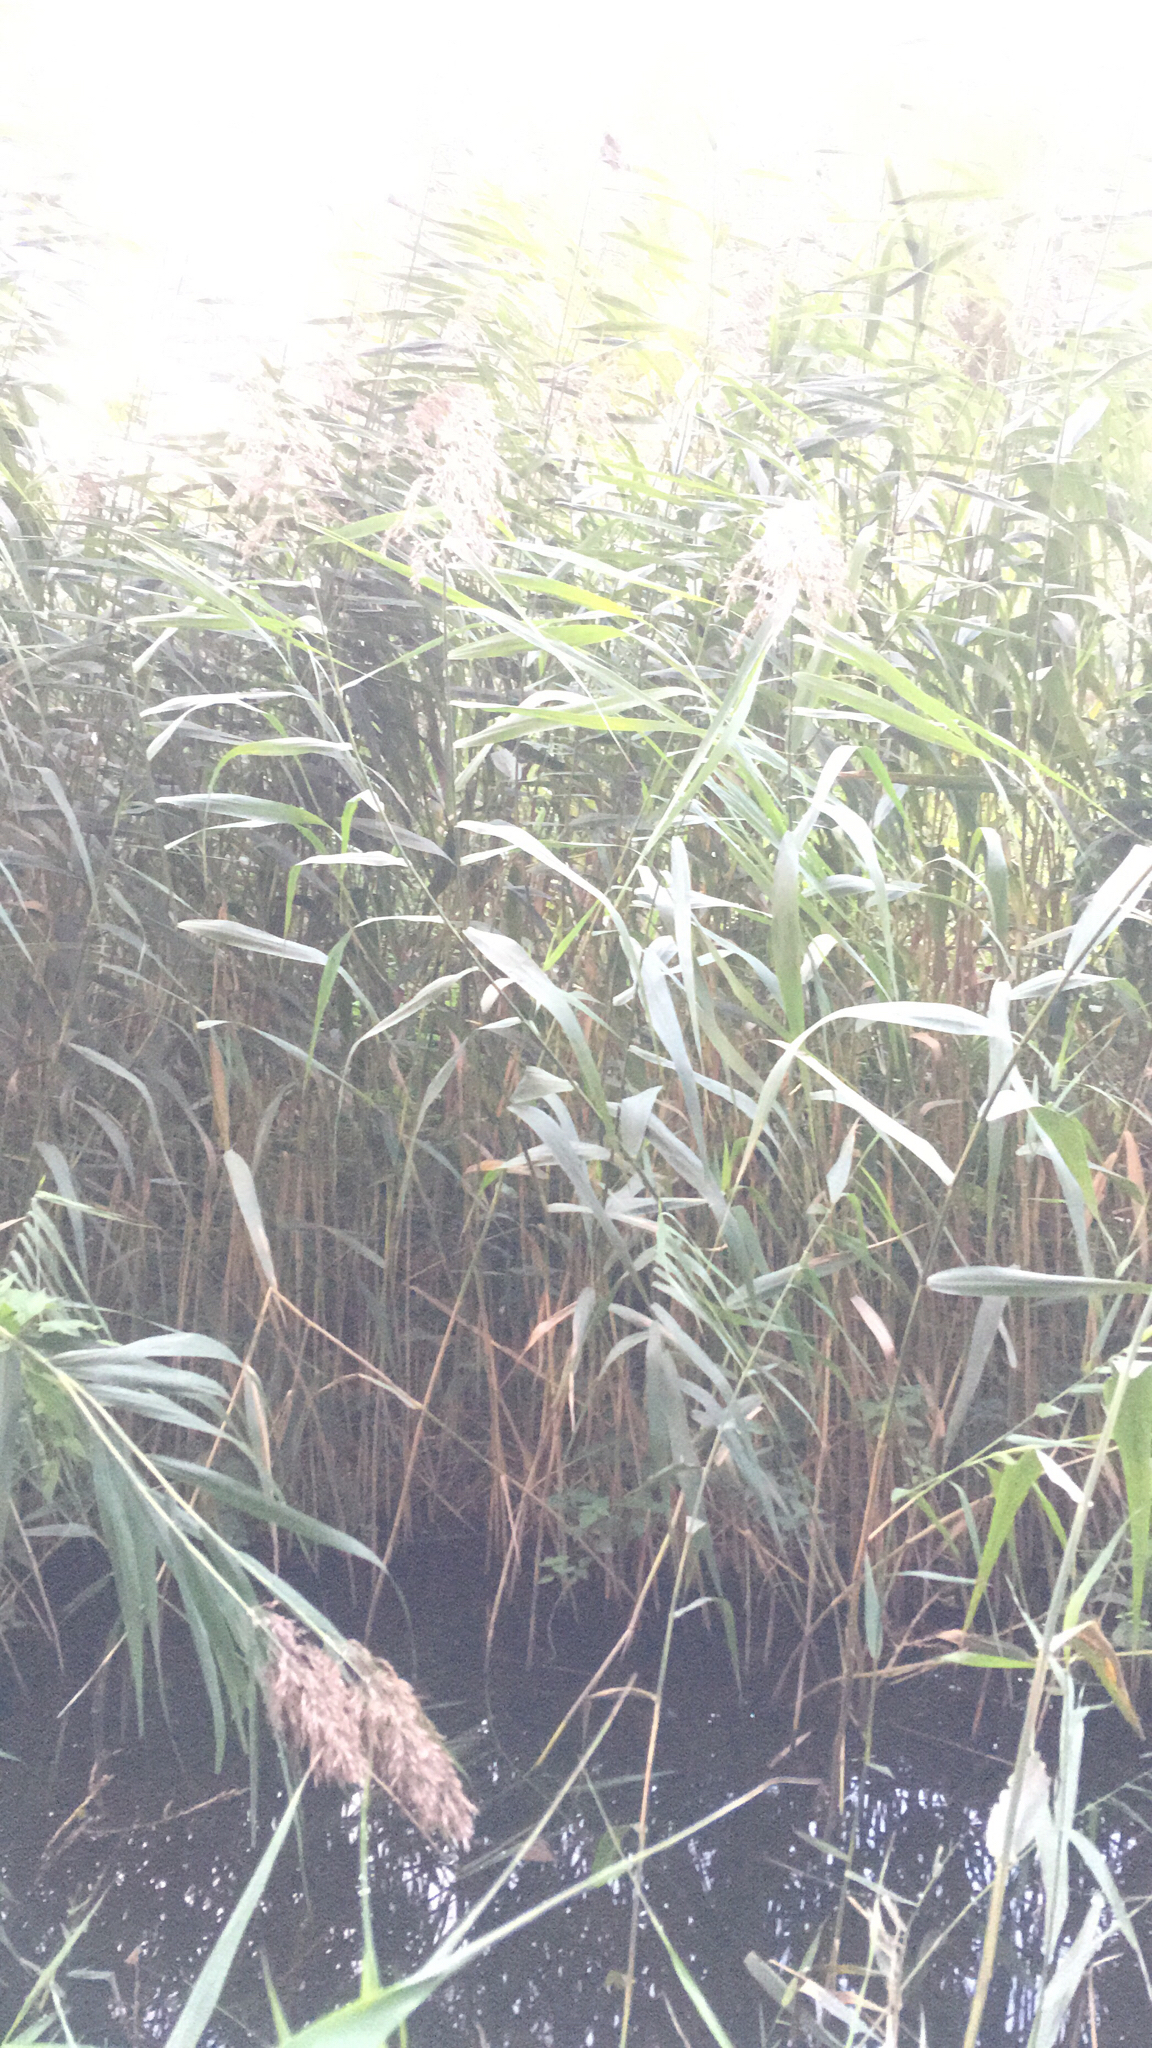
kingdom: Plantae
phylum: Tracheophyta
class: Liliopsida
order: Poales
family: Poaceae
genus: Phragmites
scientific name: Phragmites australis
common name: Common reed
